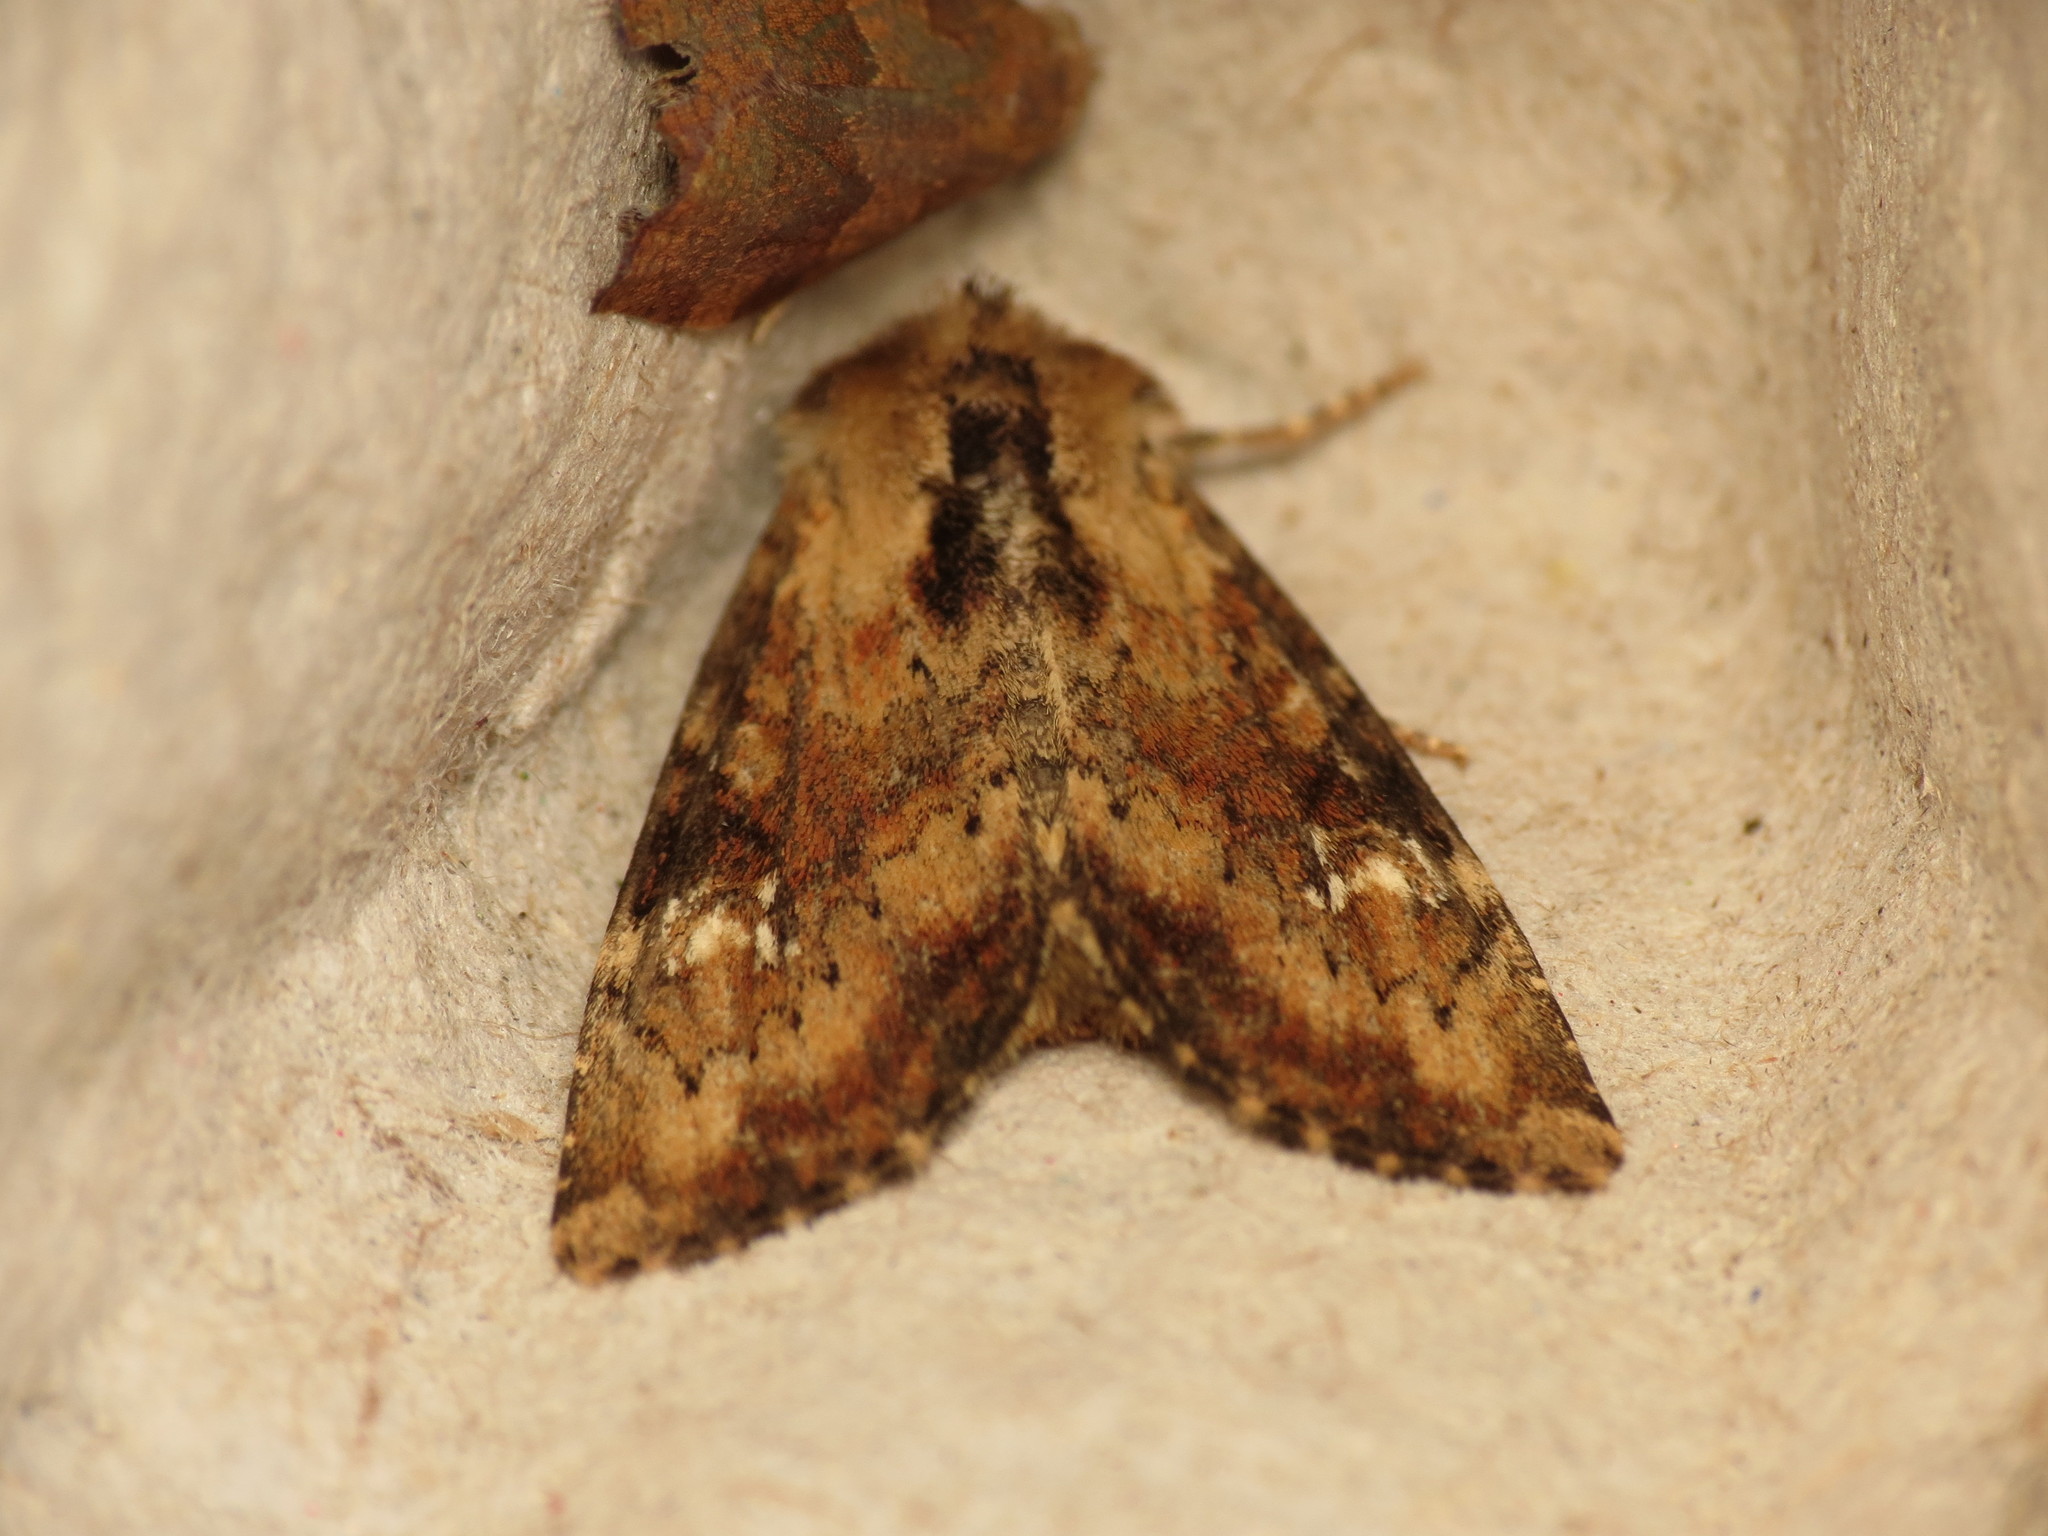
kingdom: Animalia
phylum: Arthropoda
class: Insecta
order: Lepidoptera
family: Noctuidae
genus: Loscopia
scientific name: Loscopia scolopacina
